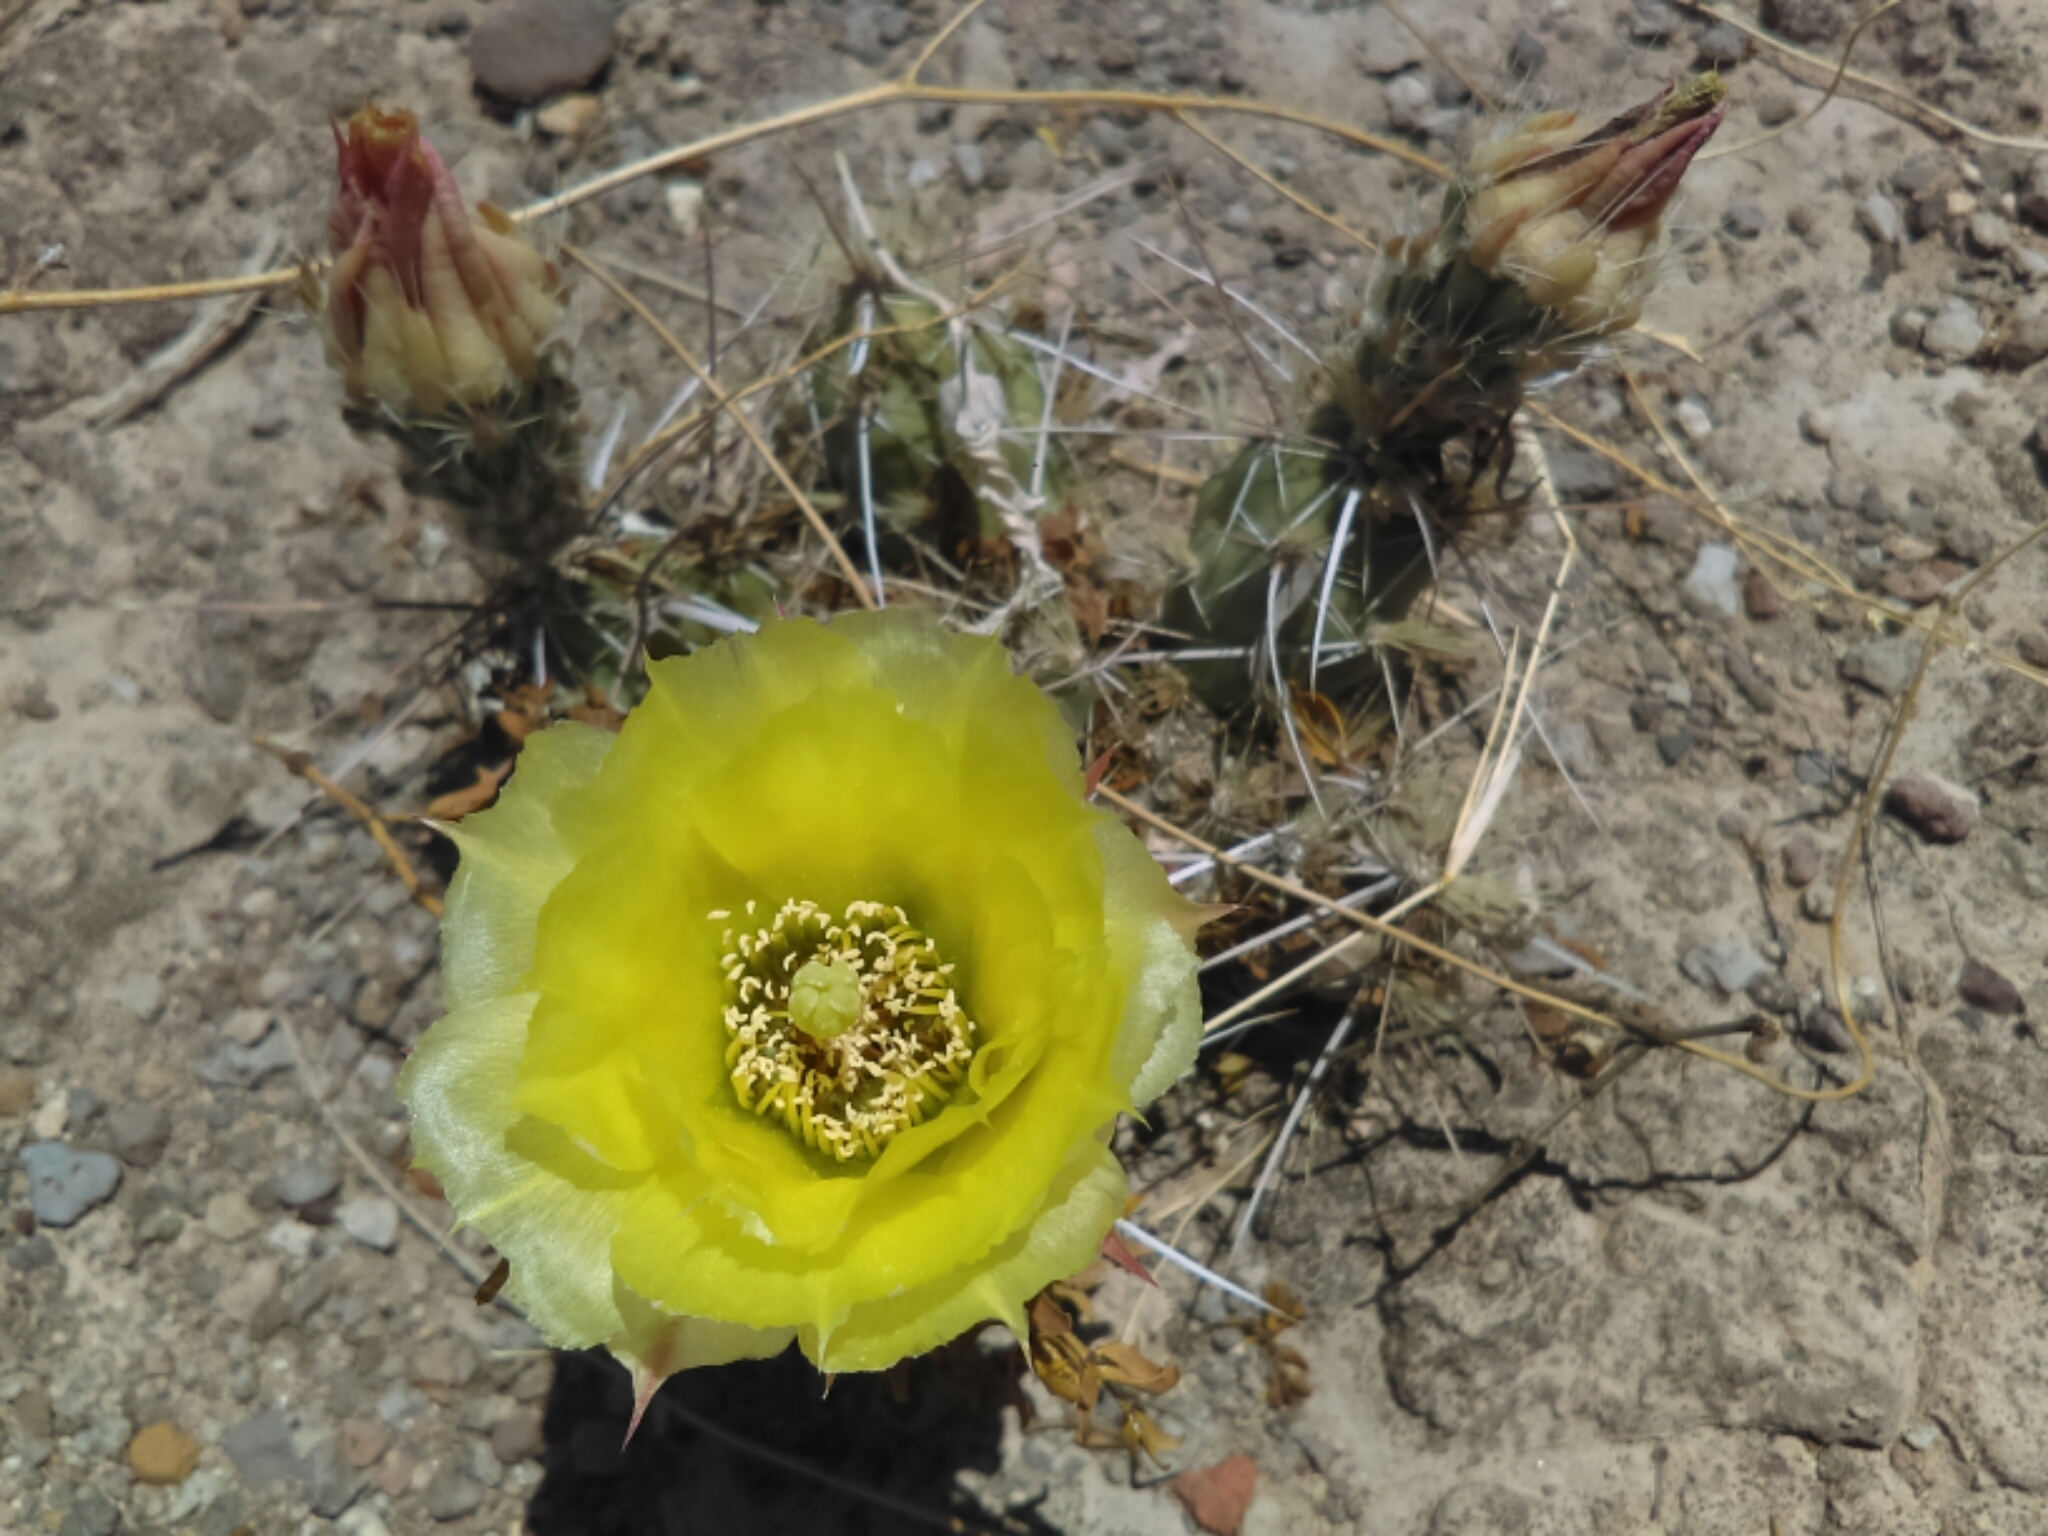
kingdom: Plantae
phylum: Tracheophyta
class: Magnoliopsida
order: Caryophyllales
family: Cactaceae
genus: Grusonia
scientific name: Grusonia schottii
